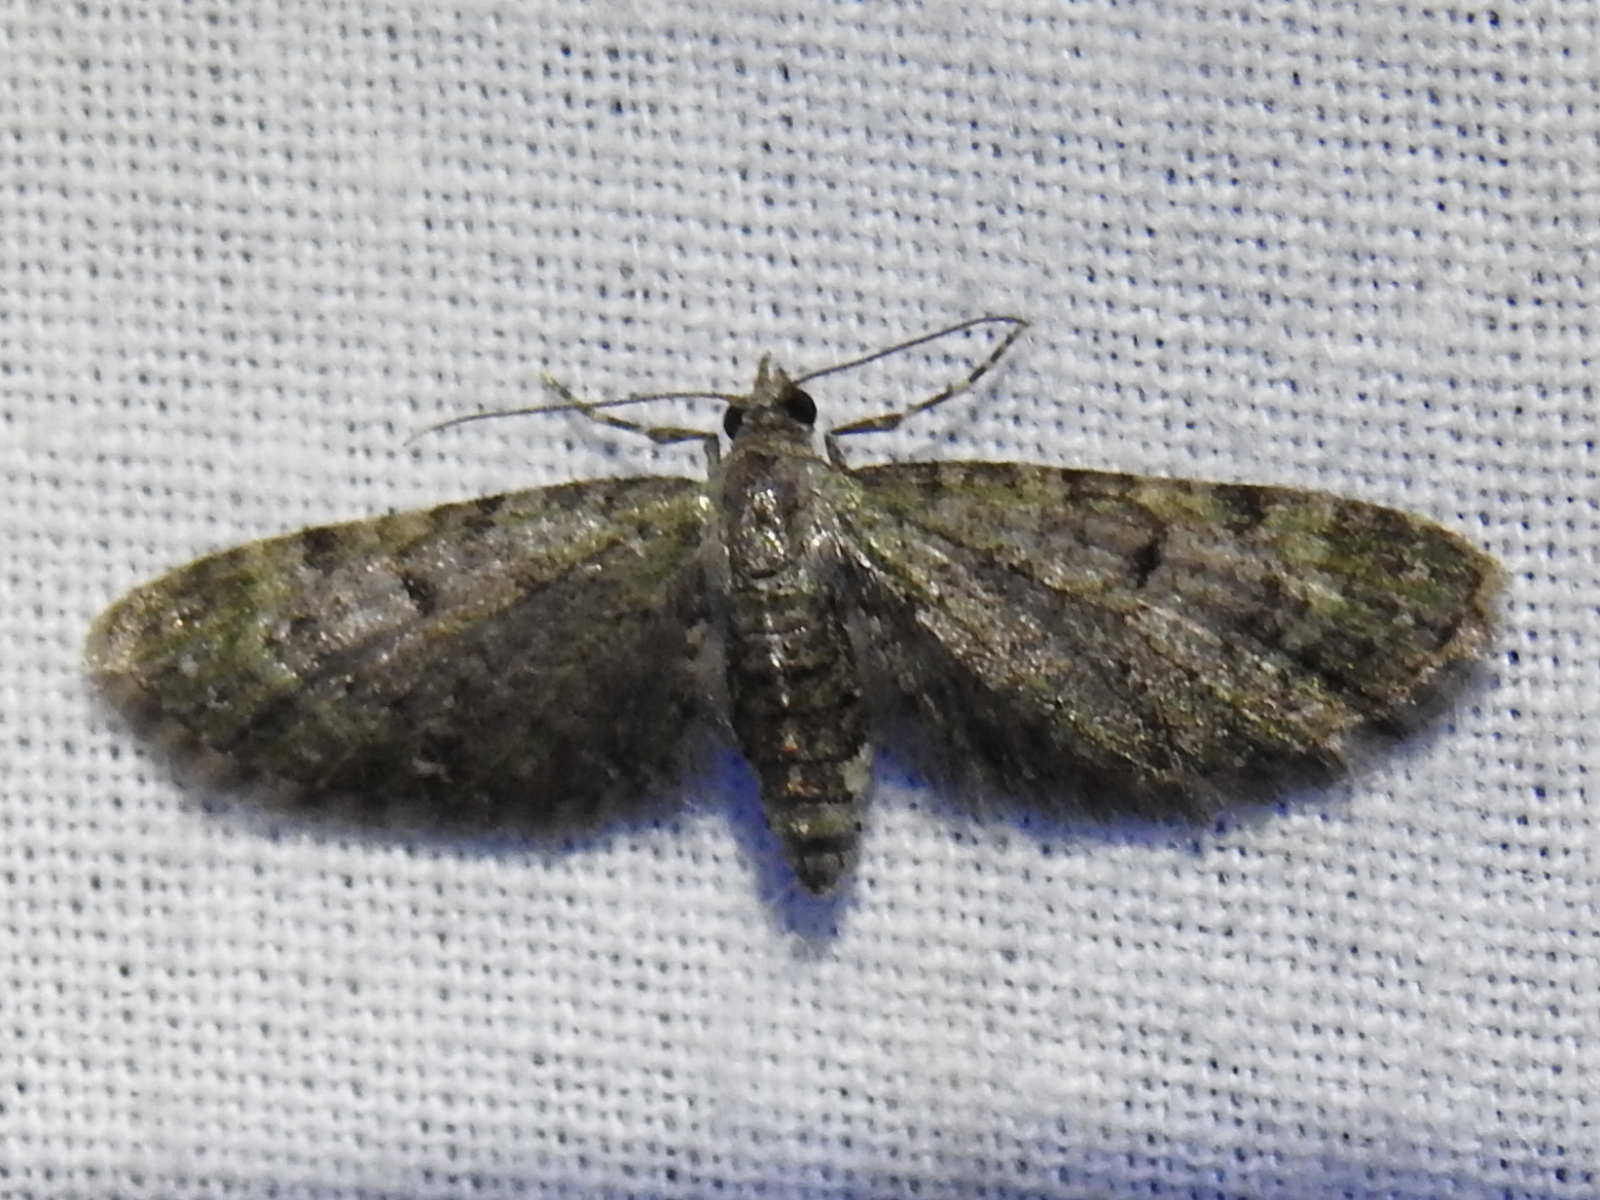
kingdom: Animalia
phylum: Arthropoda
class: Insecta
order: Lepidoptera
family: Geometridae
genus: Eupithecia
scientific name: Eupithecia miserulata
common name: Common eupithecia
